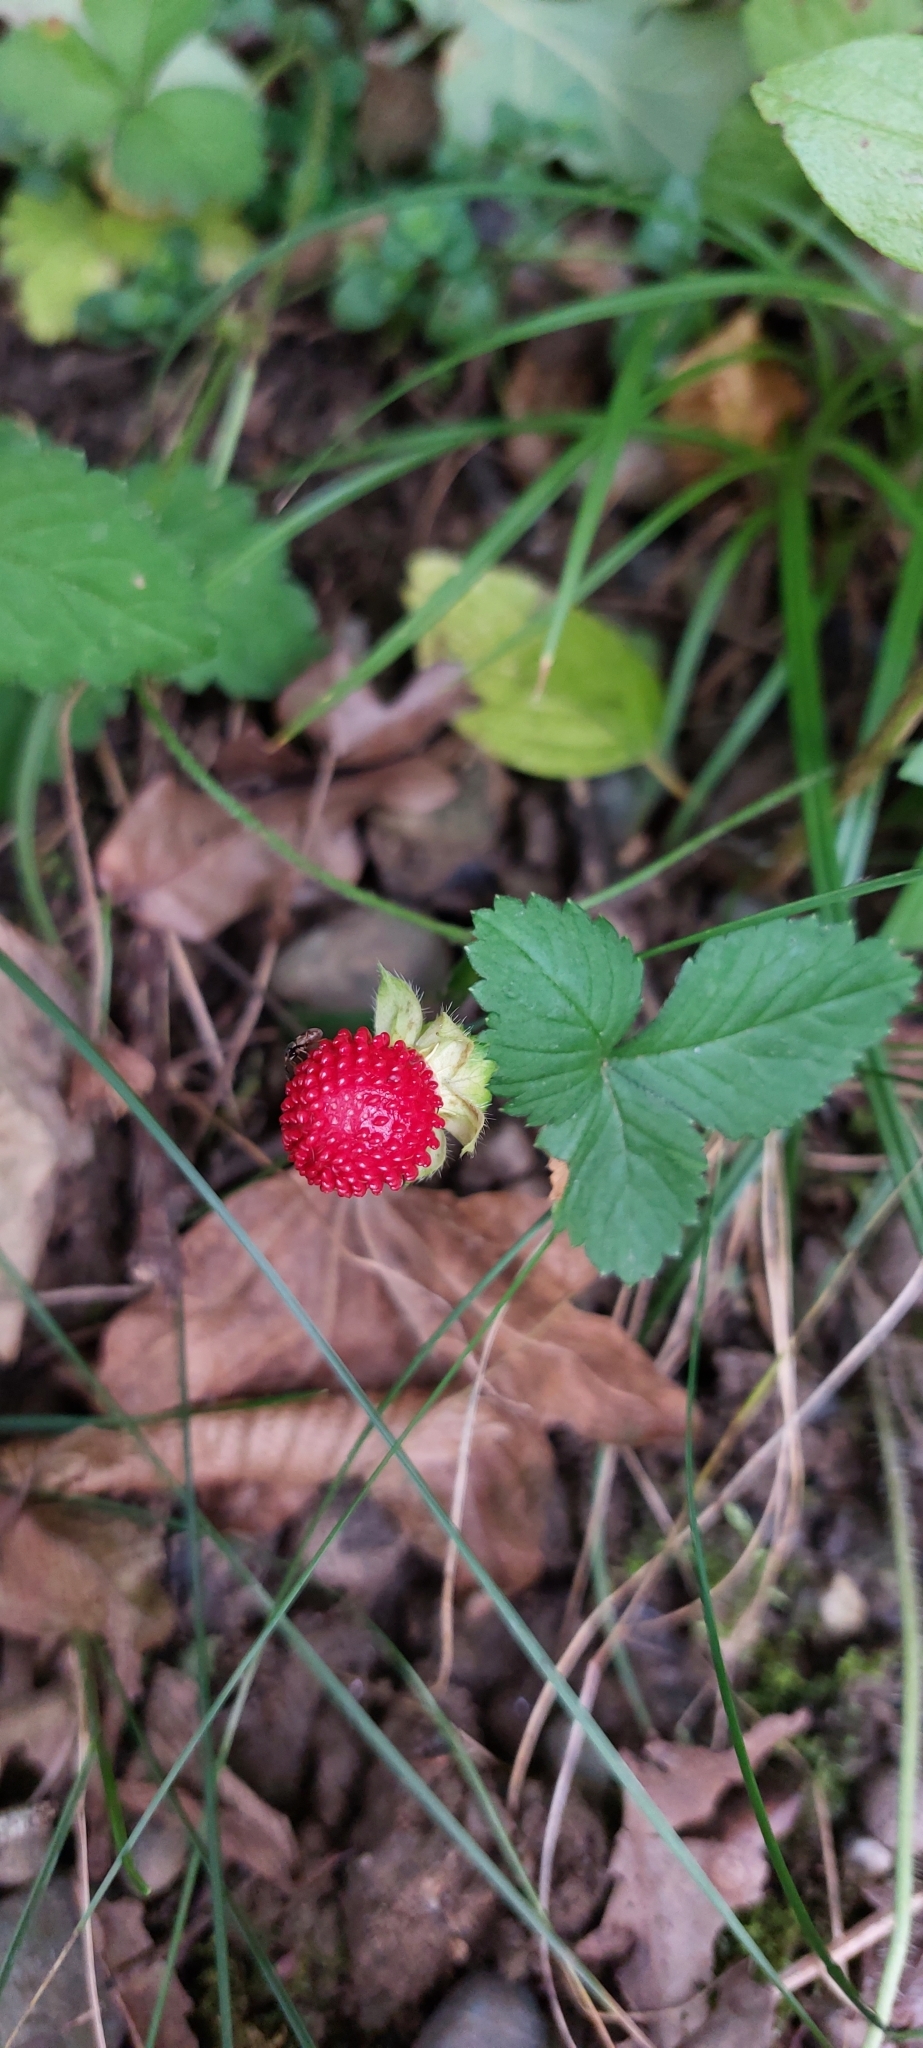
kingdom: Plantae
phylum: Tracheophyta
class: Magnoliopsida
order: Rosales
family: Rosaceae
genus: Potentilla
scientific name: Potentilla indica
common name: Yellow-flowered strawberry
